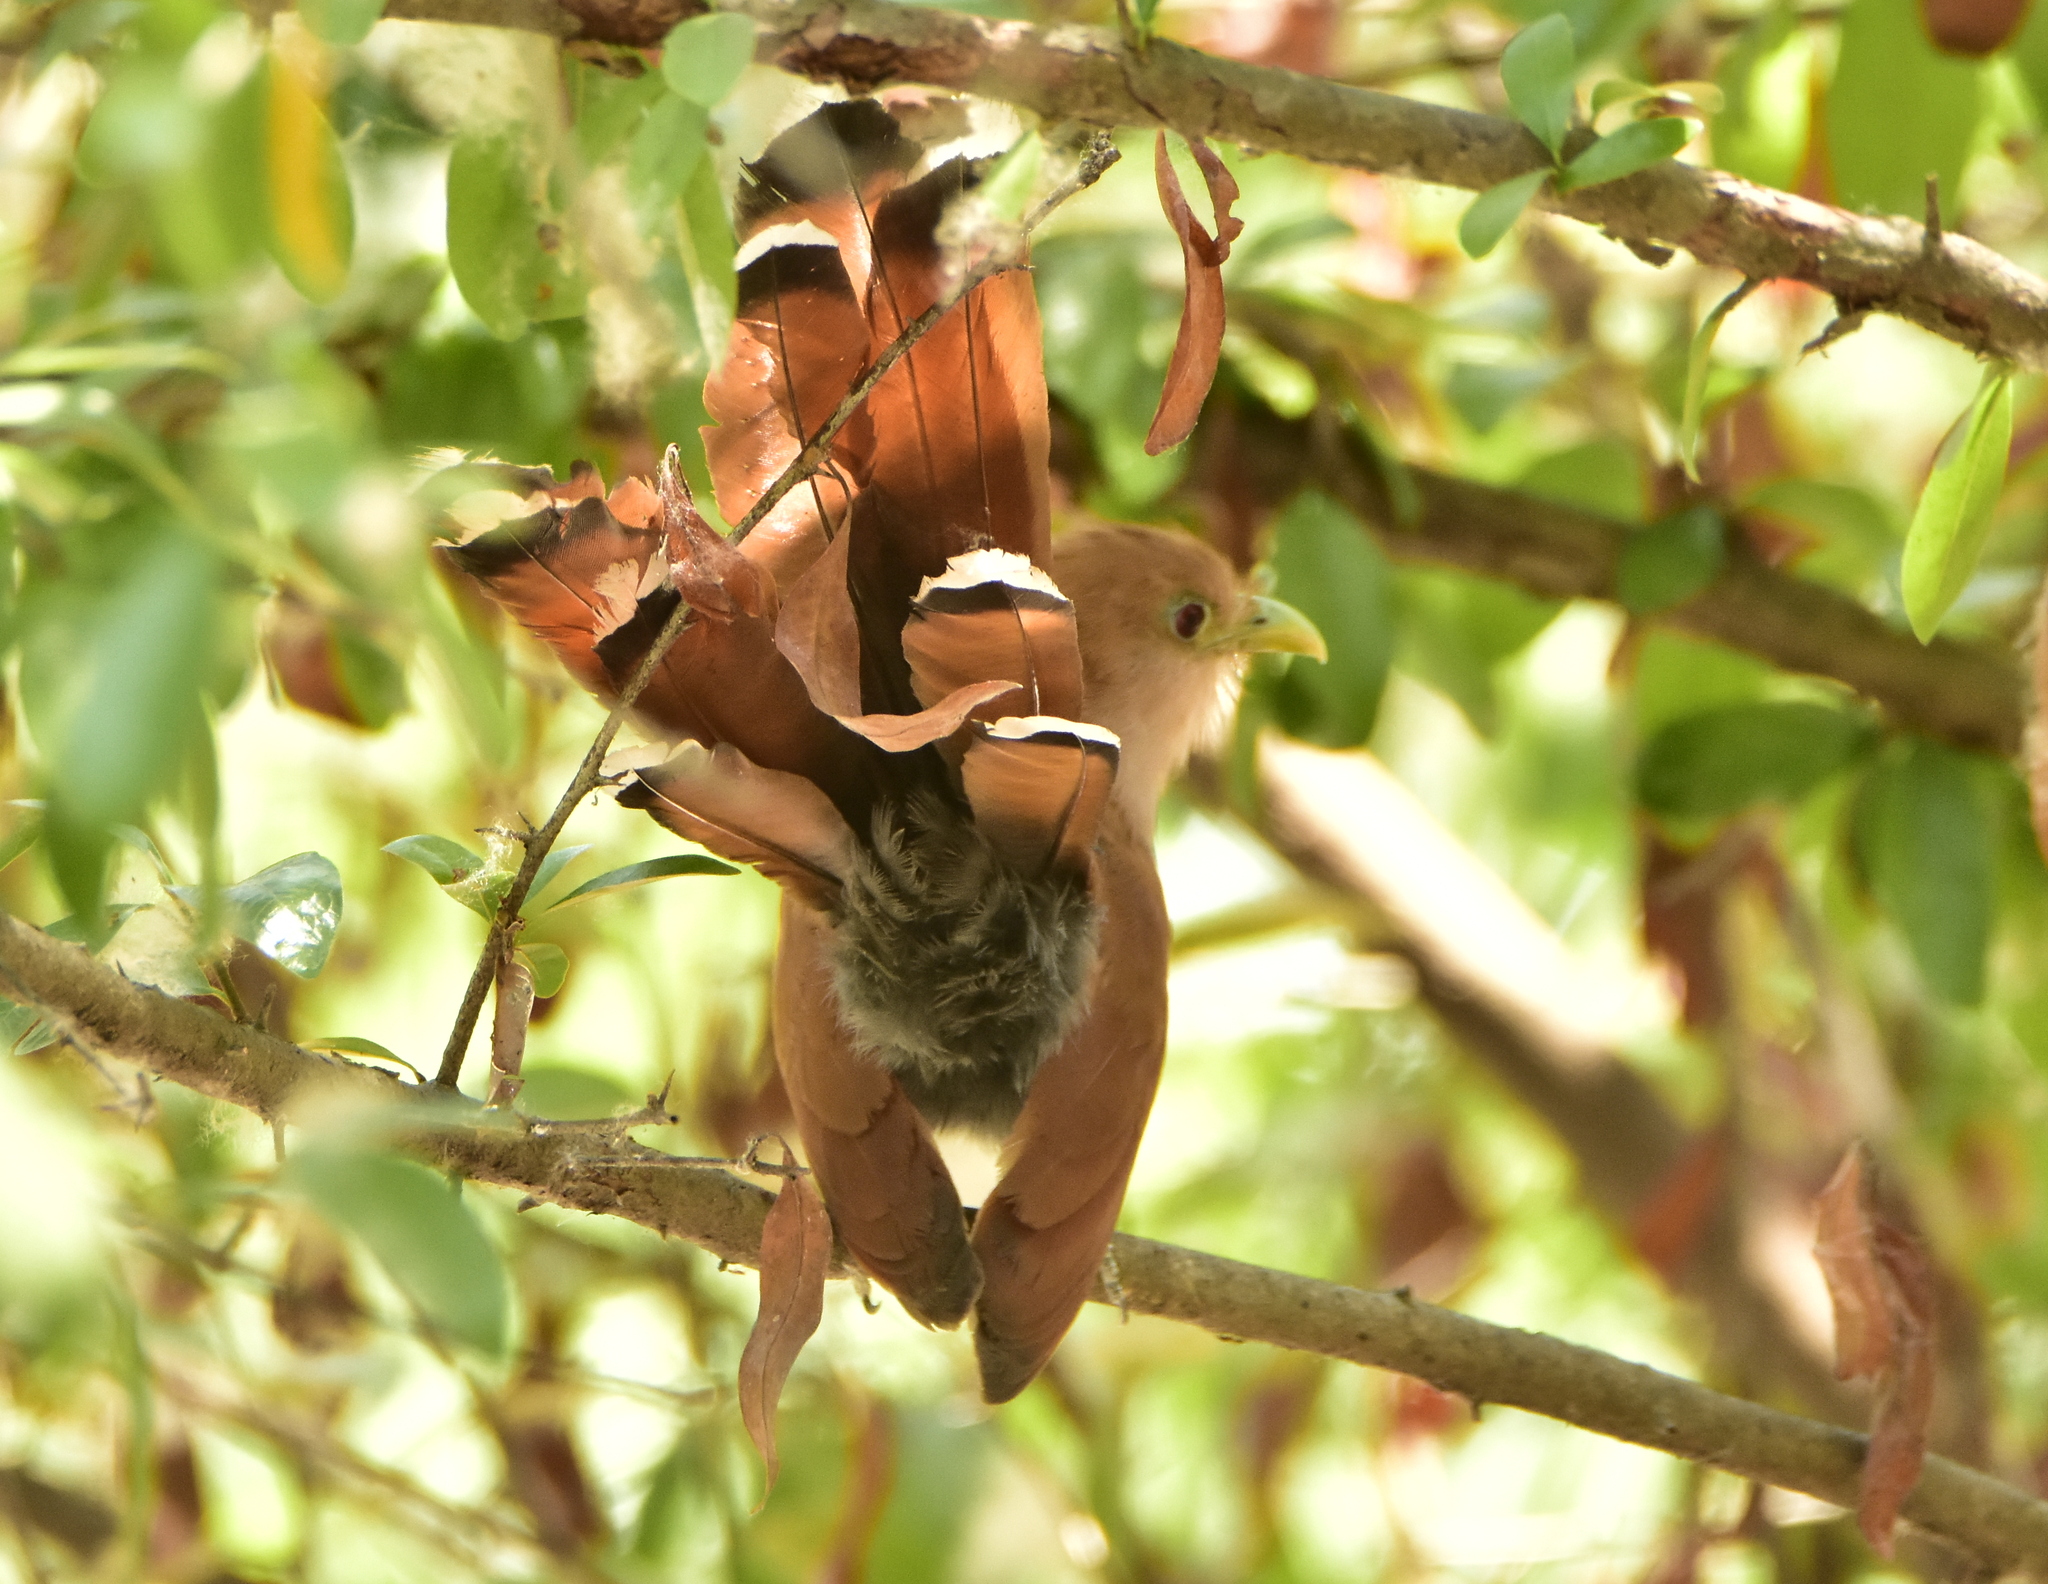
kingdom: Animalia
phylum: Chordata
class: Aves
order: Cuculiformes
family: Cuculidae
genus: Piaya
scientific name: Piaya cayana
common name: Squirrel cuckoo
